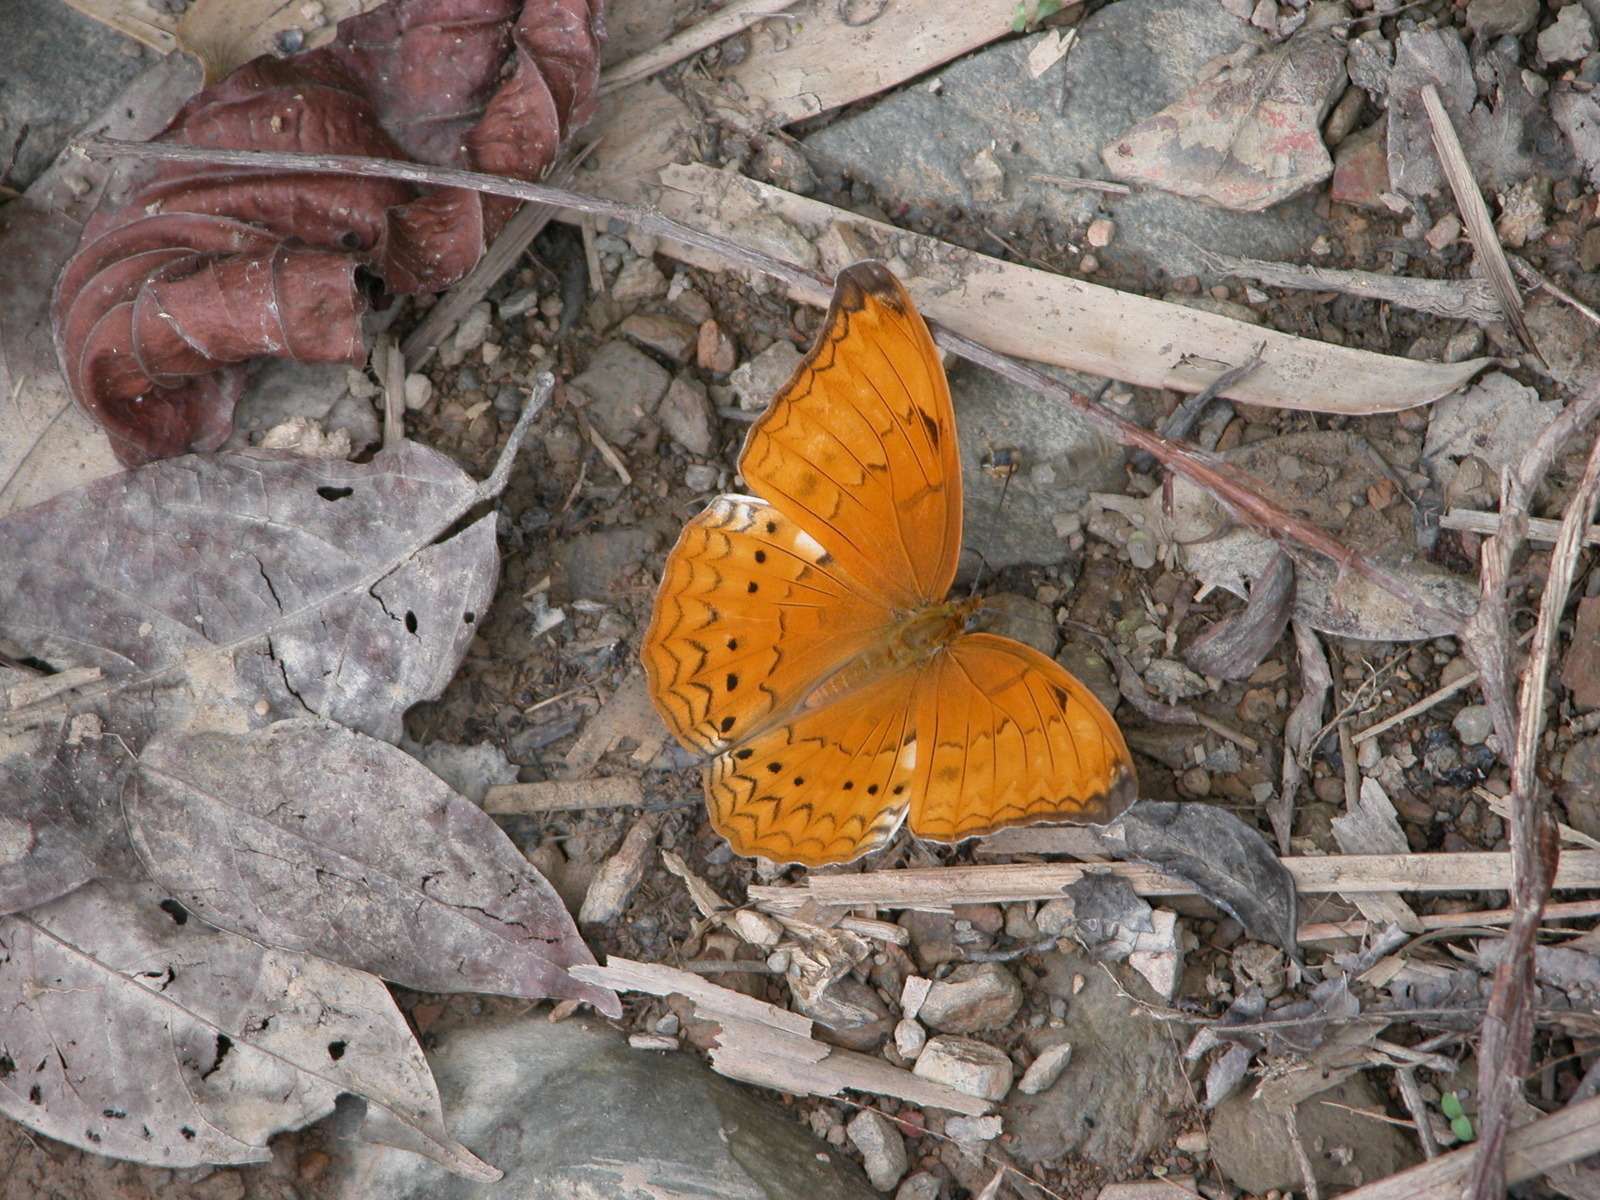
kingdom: Animalia
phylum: Arthropoda
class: Insecta
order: Lepidoptera
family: Nymphalidae
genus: Cirrochroa
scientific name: Cirrochroa aoris
